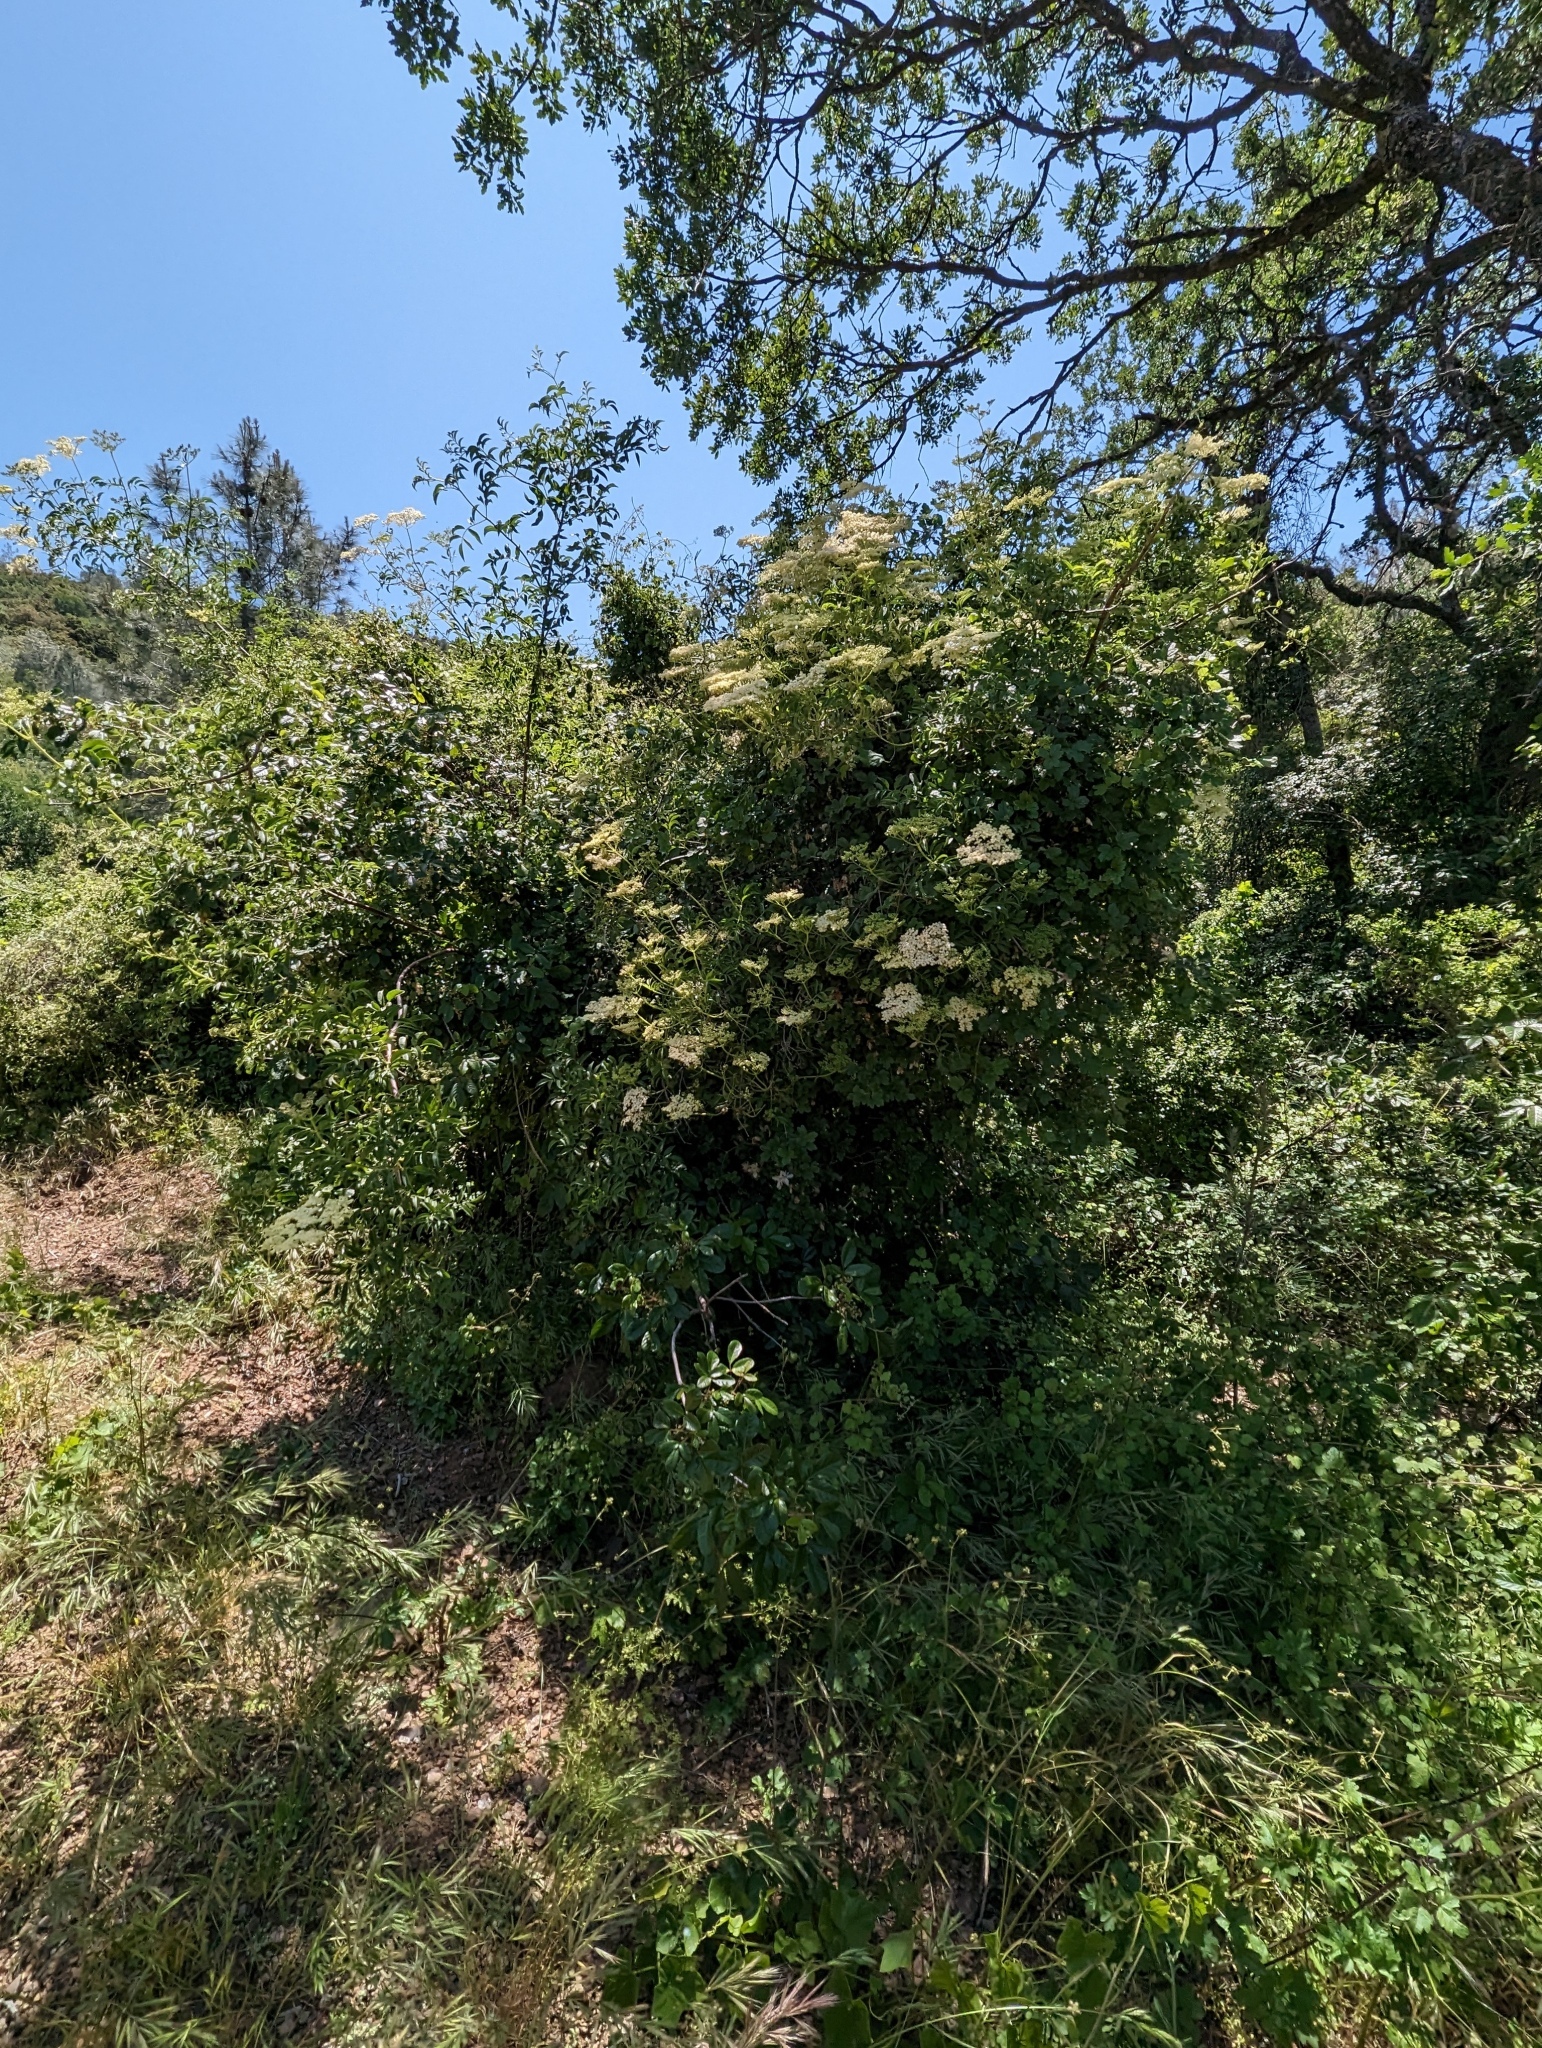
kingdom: Plantae
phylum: Tracheophyta
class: Magnoliopsida
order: Dipsacales
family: Viburnaceae
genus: Sambucus
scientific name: Sambucus cerulea
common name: Blue elder
